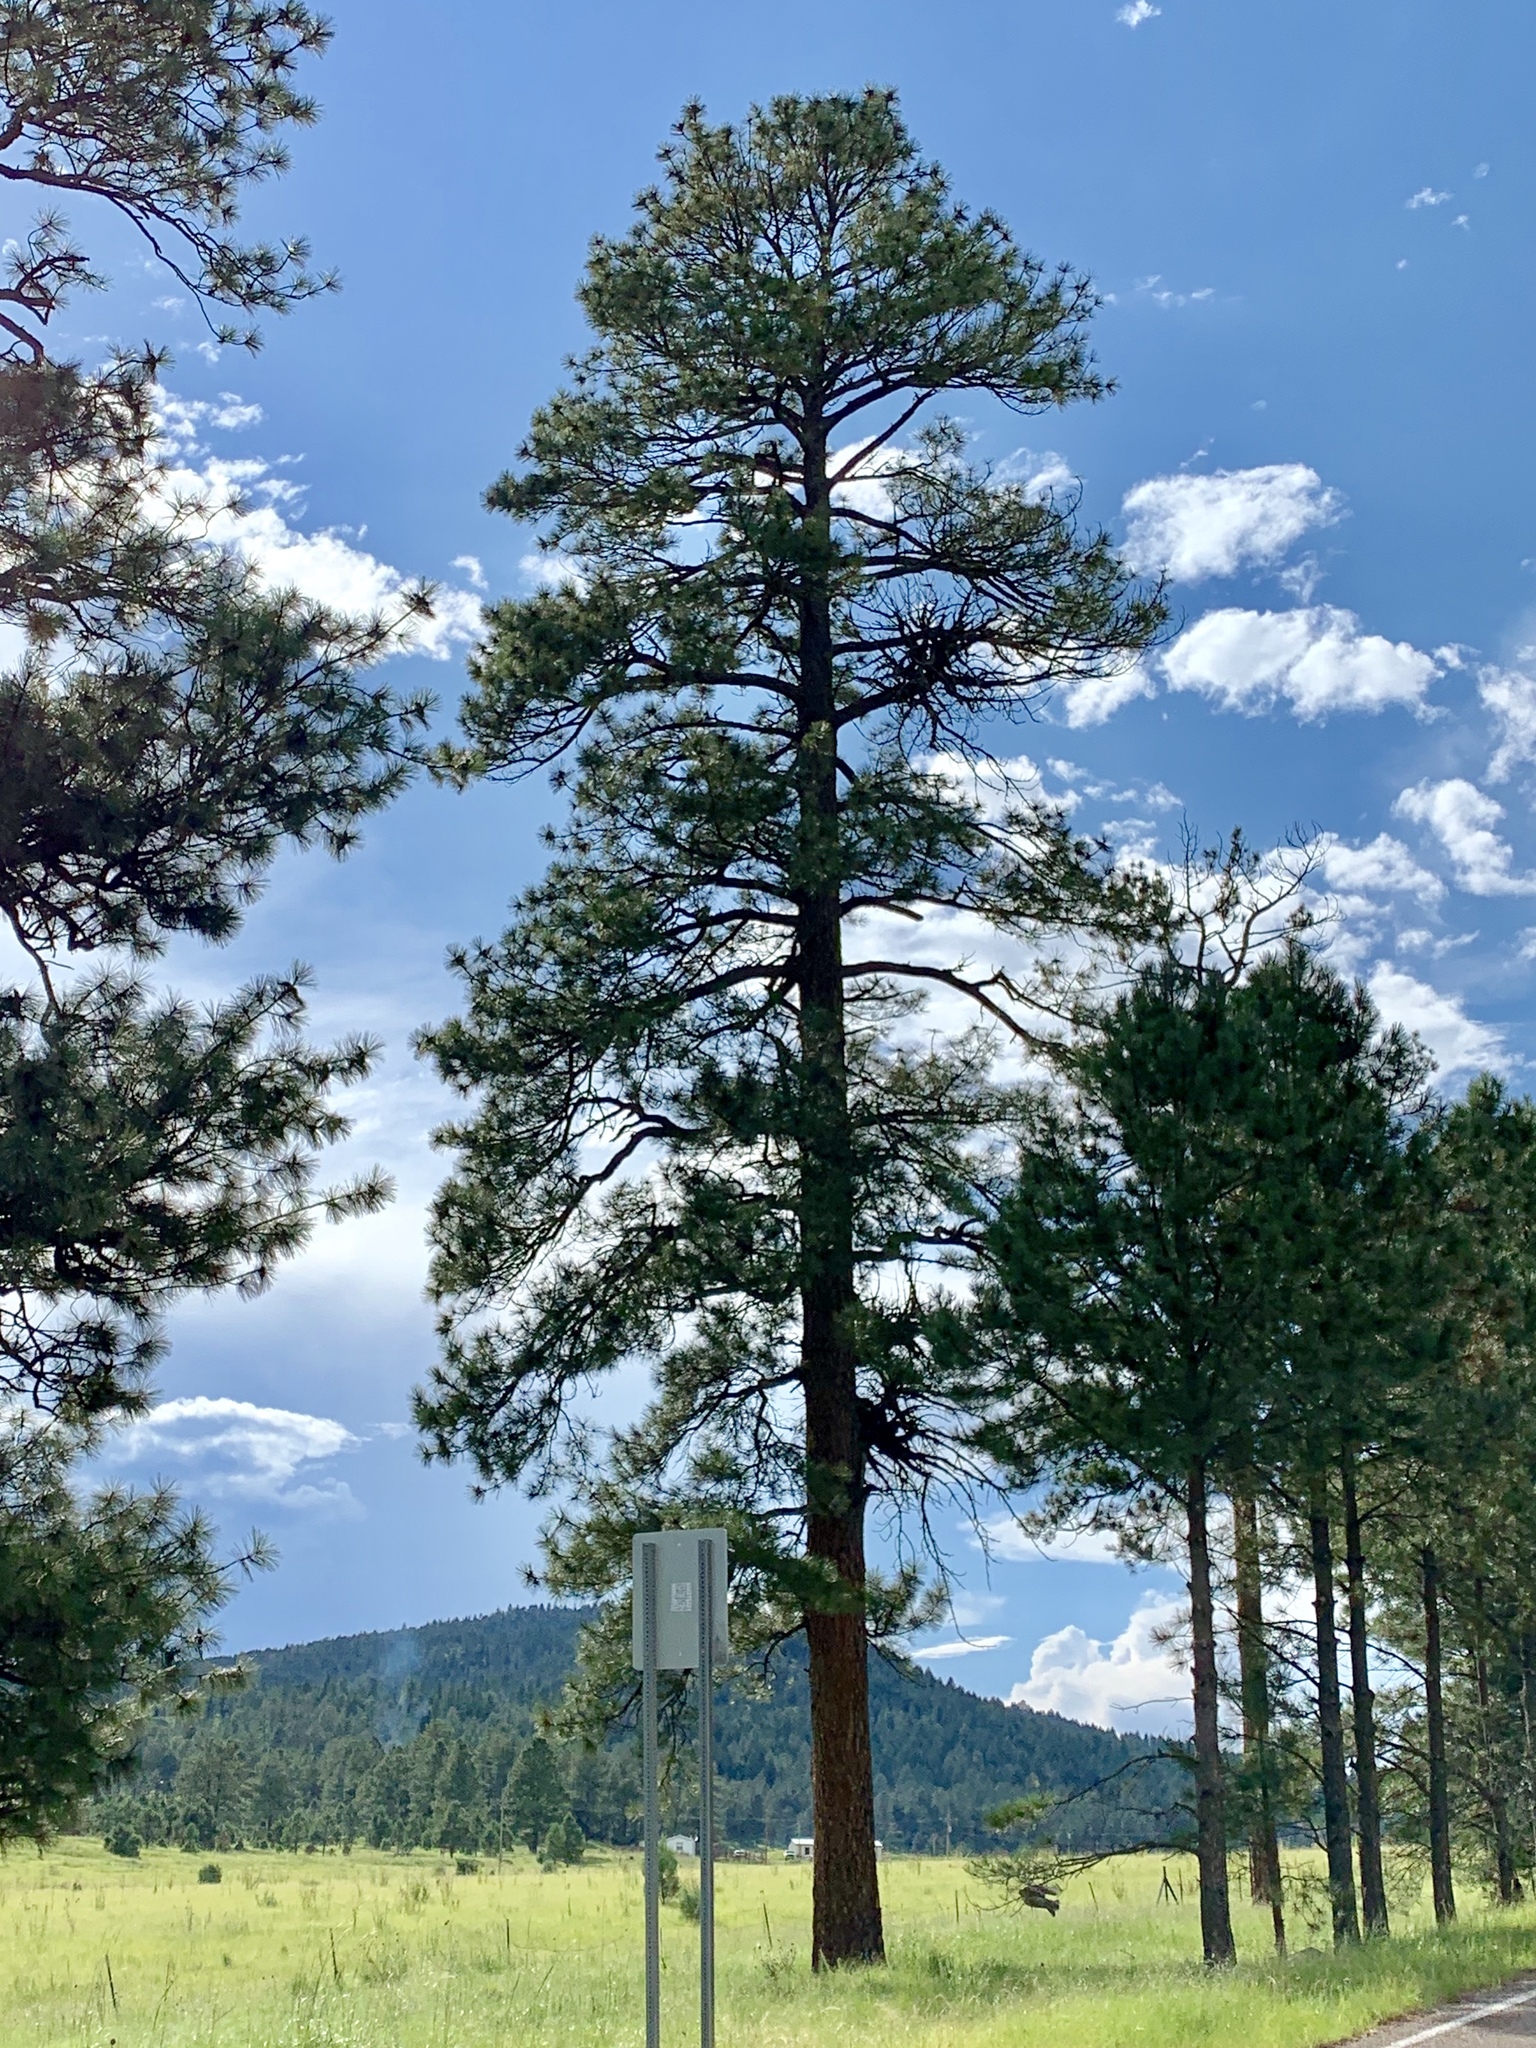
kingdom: Plantae
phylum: Tracheophyta
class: Pinopsida
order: Pinales
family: Pinaceae
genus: Pinus
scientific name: Pinus ponderosa
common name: Western yellow-pine
